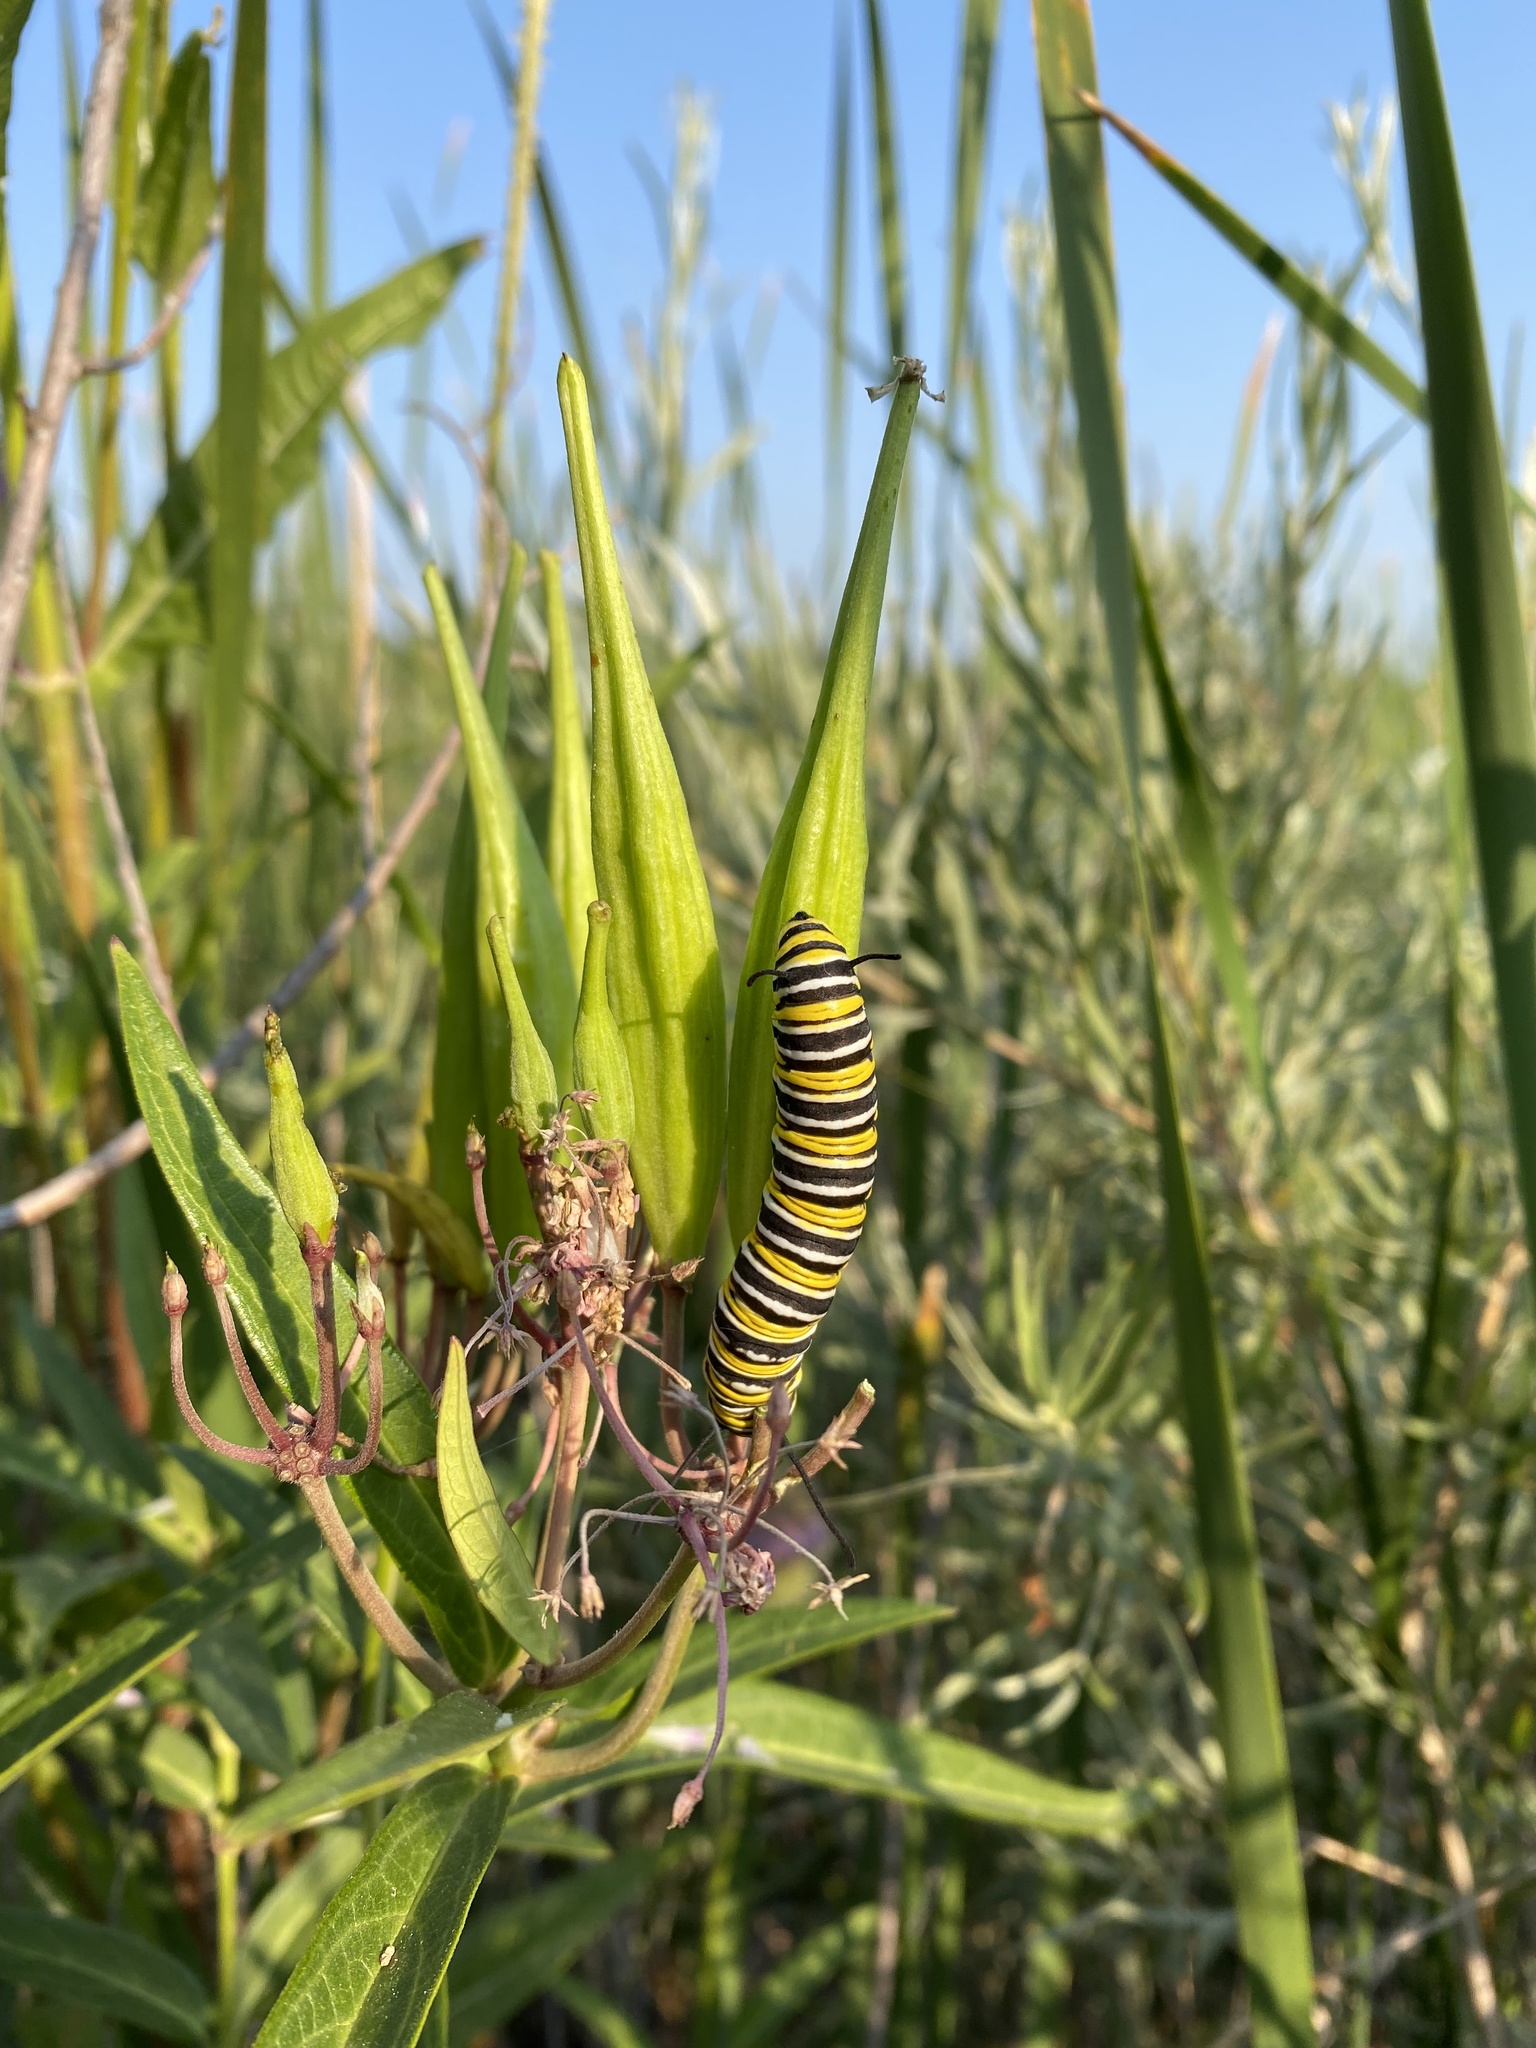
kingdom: Animalia
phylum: Arthropoda
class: Insecta
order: Lepidoptera
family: Nymphalidae
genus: Danaus
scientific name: Danaus plexippus
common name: Monarch
